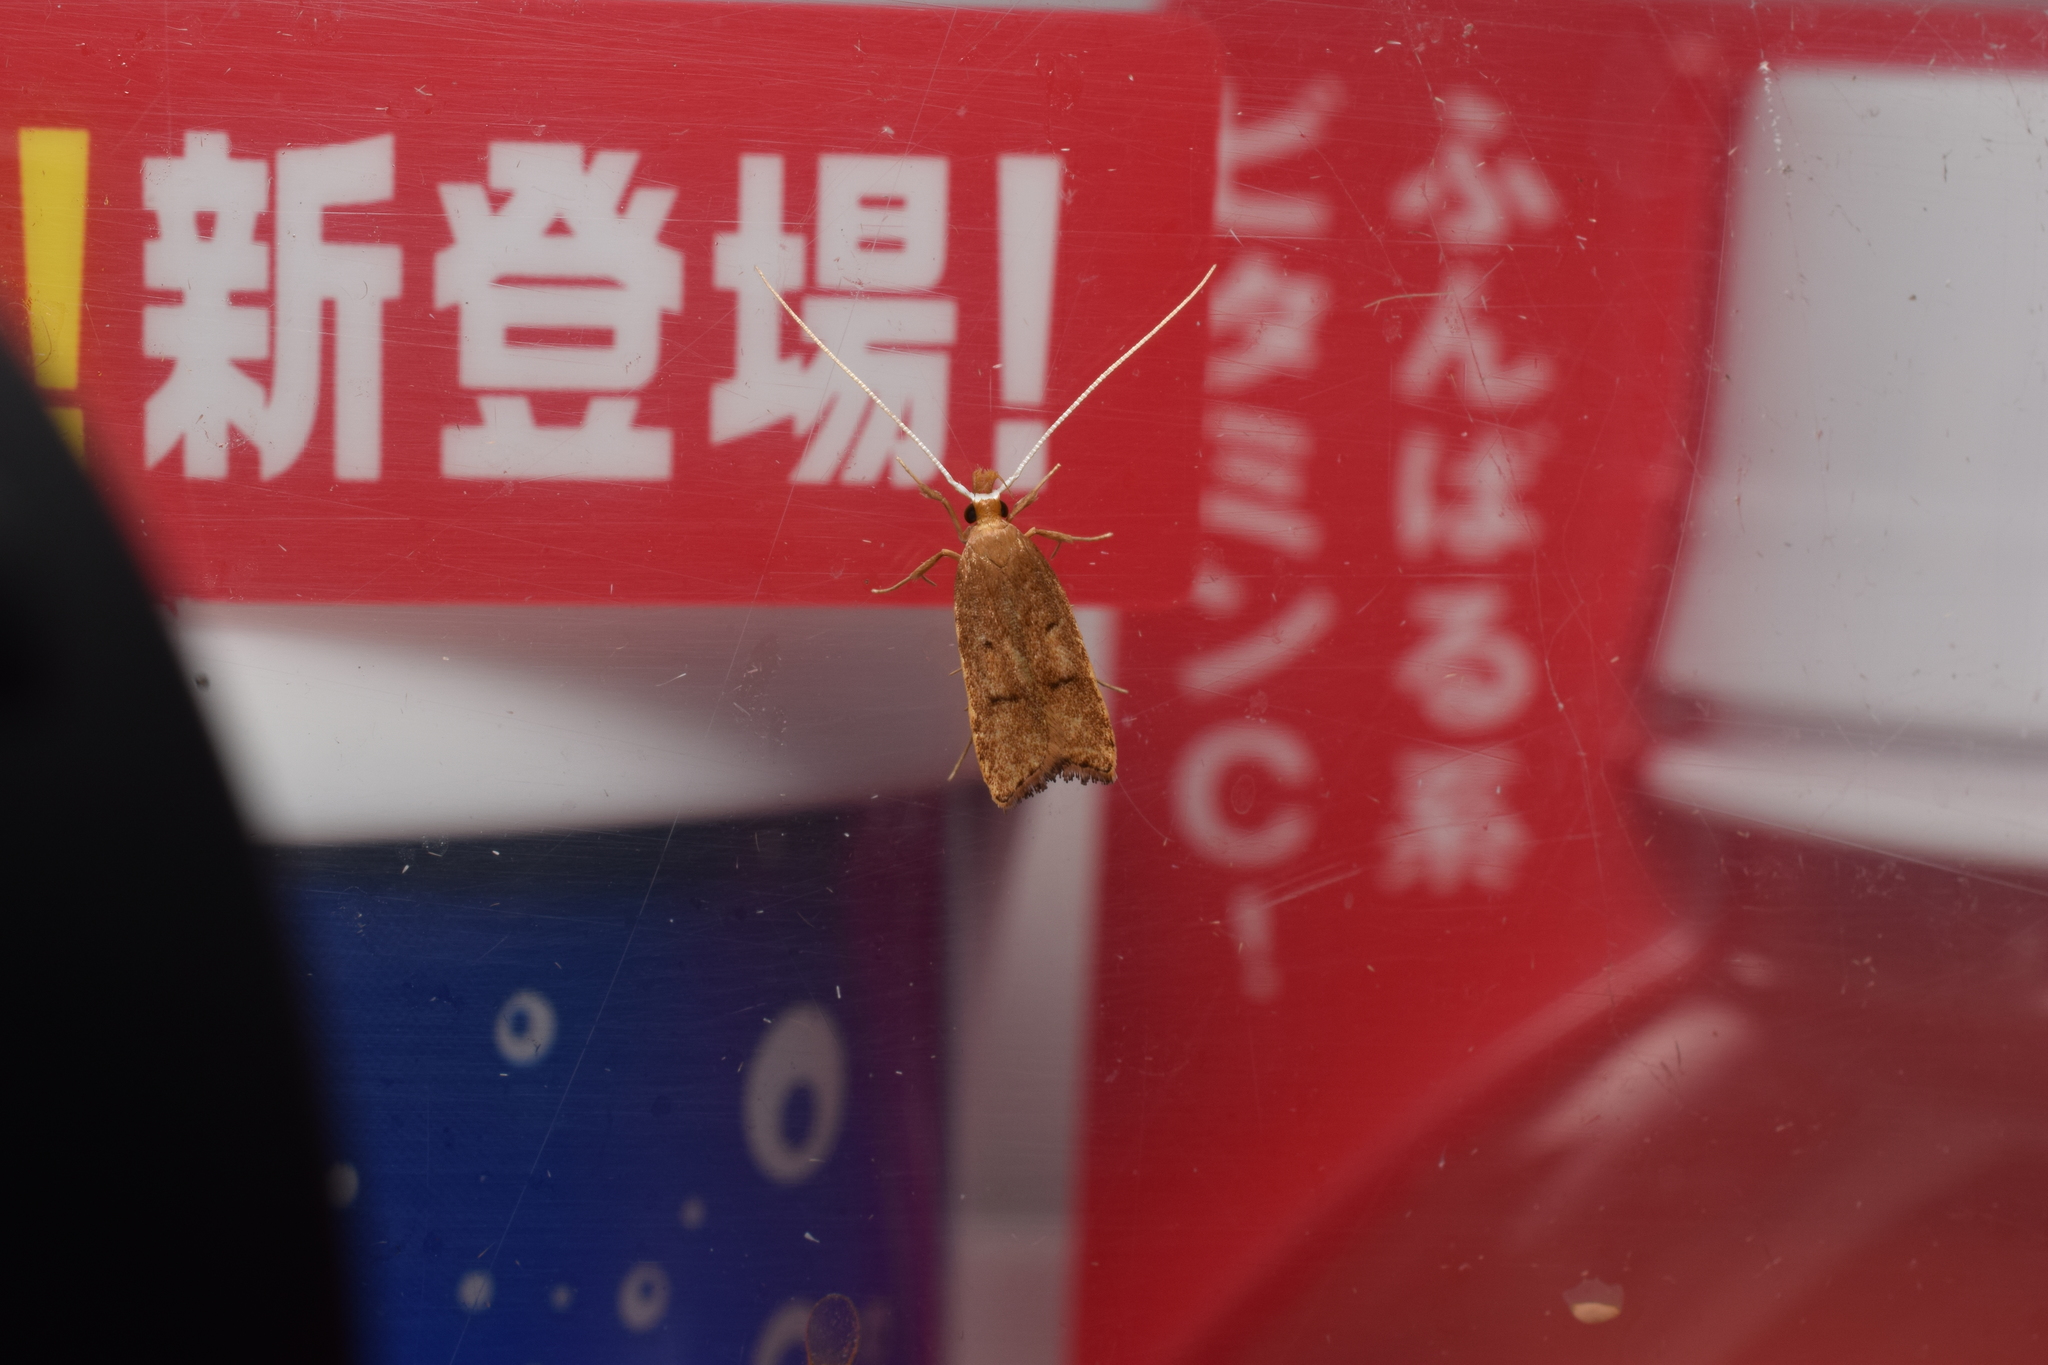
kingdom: Animalia
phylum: Arthropoda
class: Insecta
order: Lepidoptera
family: Lecithoceridae
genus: Lecitholaxa
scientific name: Lecitholaxa thiodora
